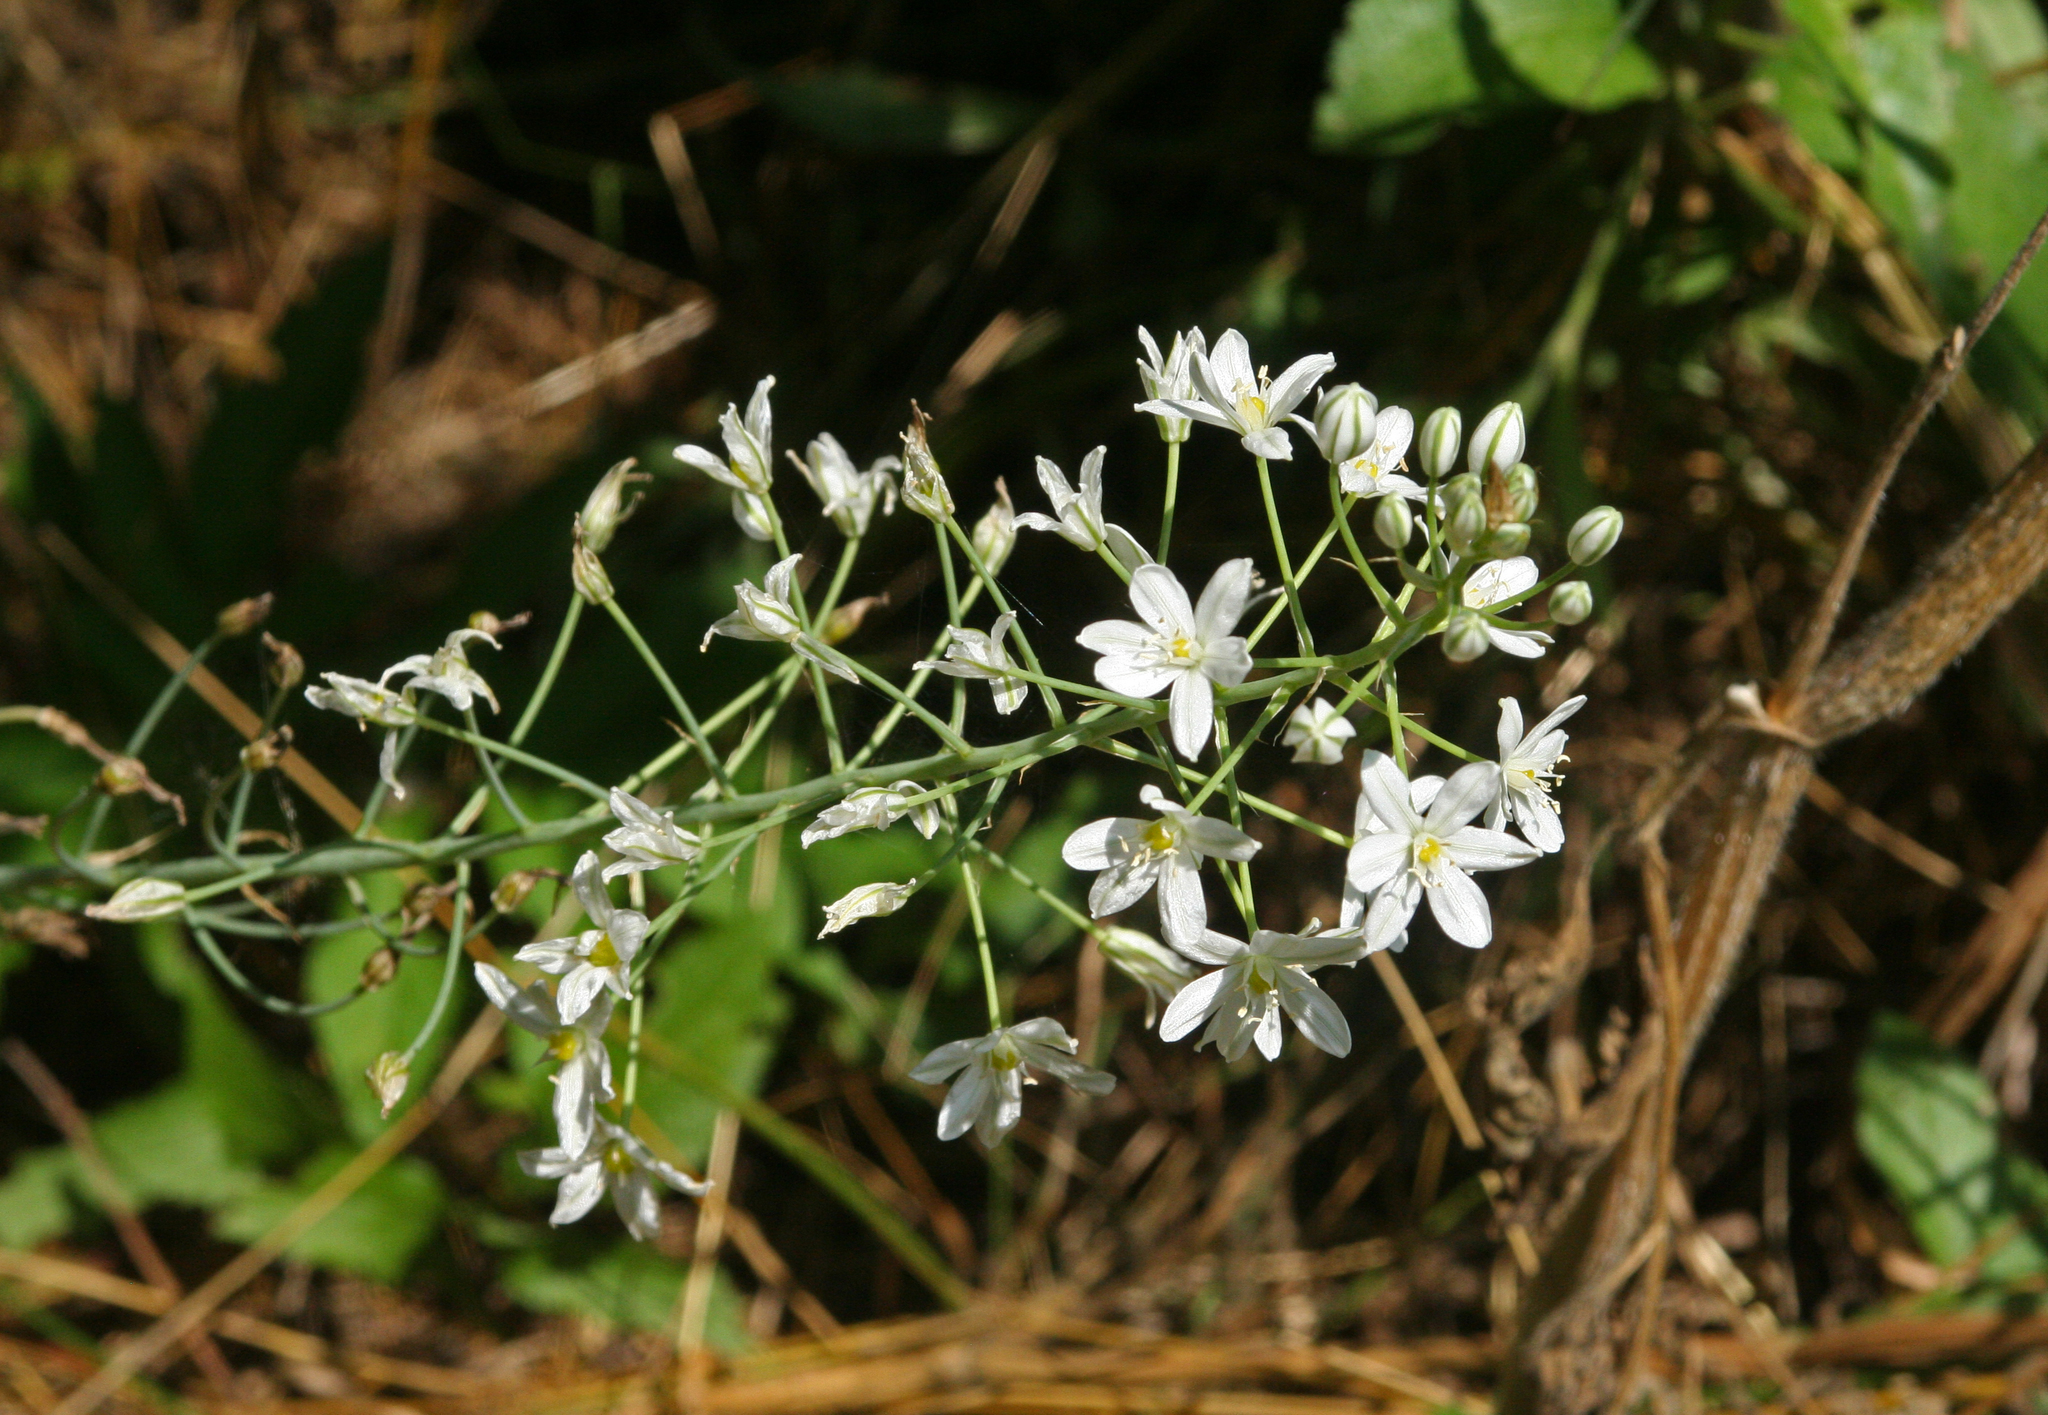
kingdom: Plantae
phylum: Tracheophyta
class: Liliopsida
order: Asparagales
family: Asparagaceae
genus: Ornithogalum
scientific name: Ornithogalum ponticum
